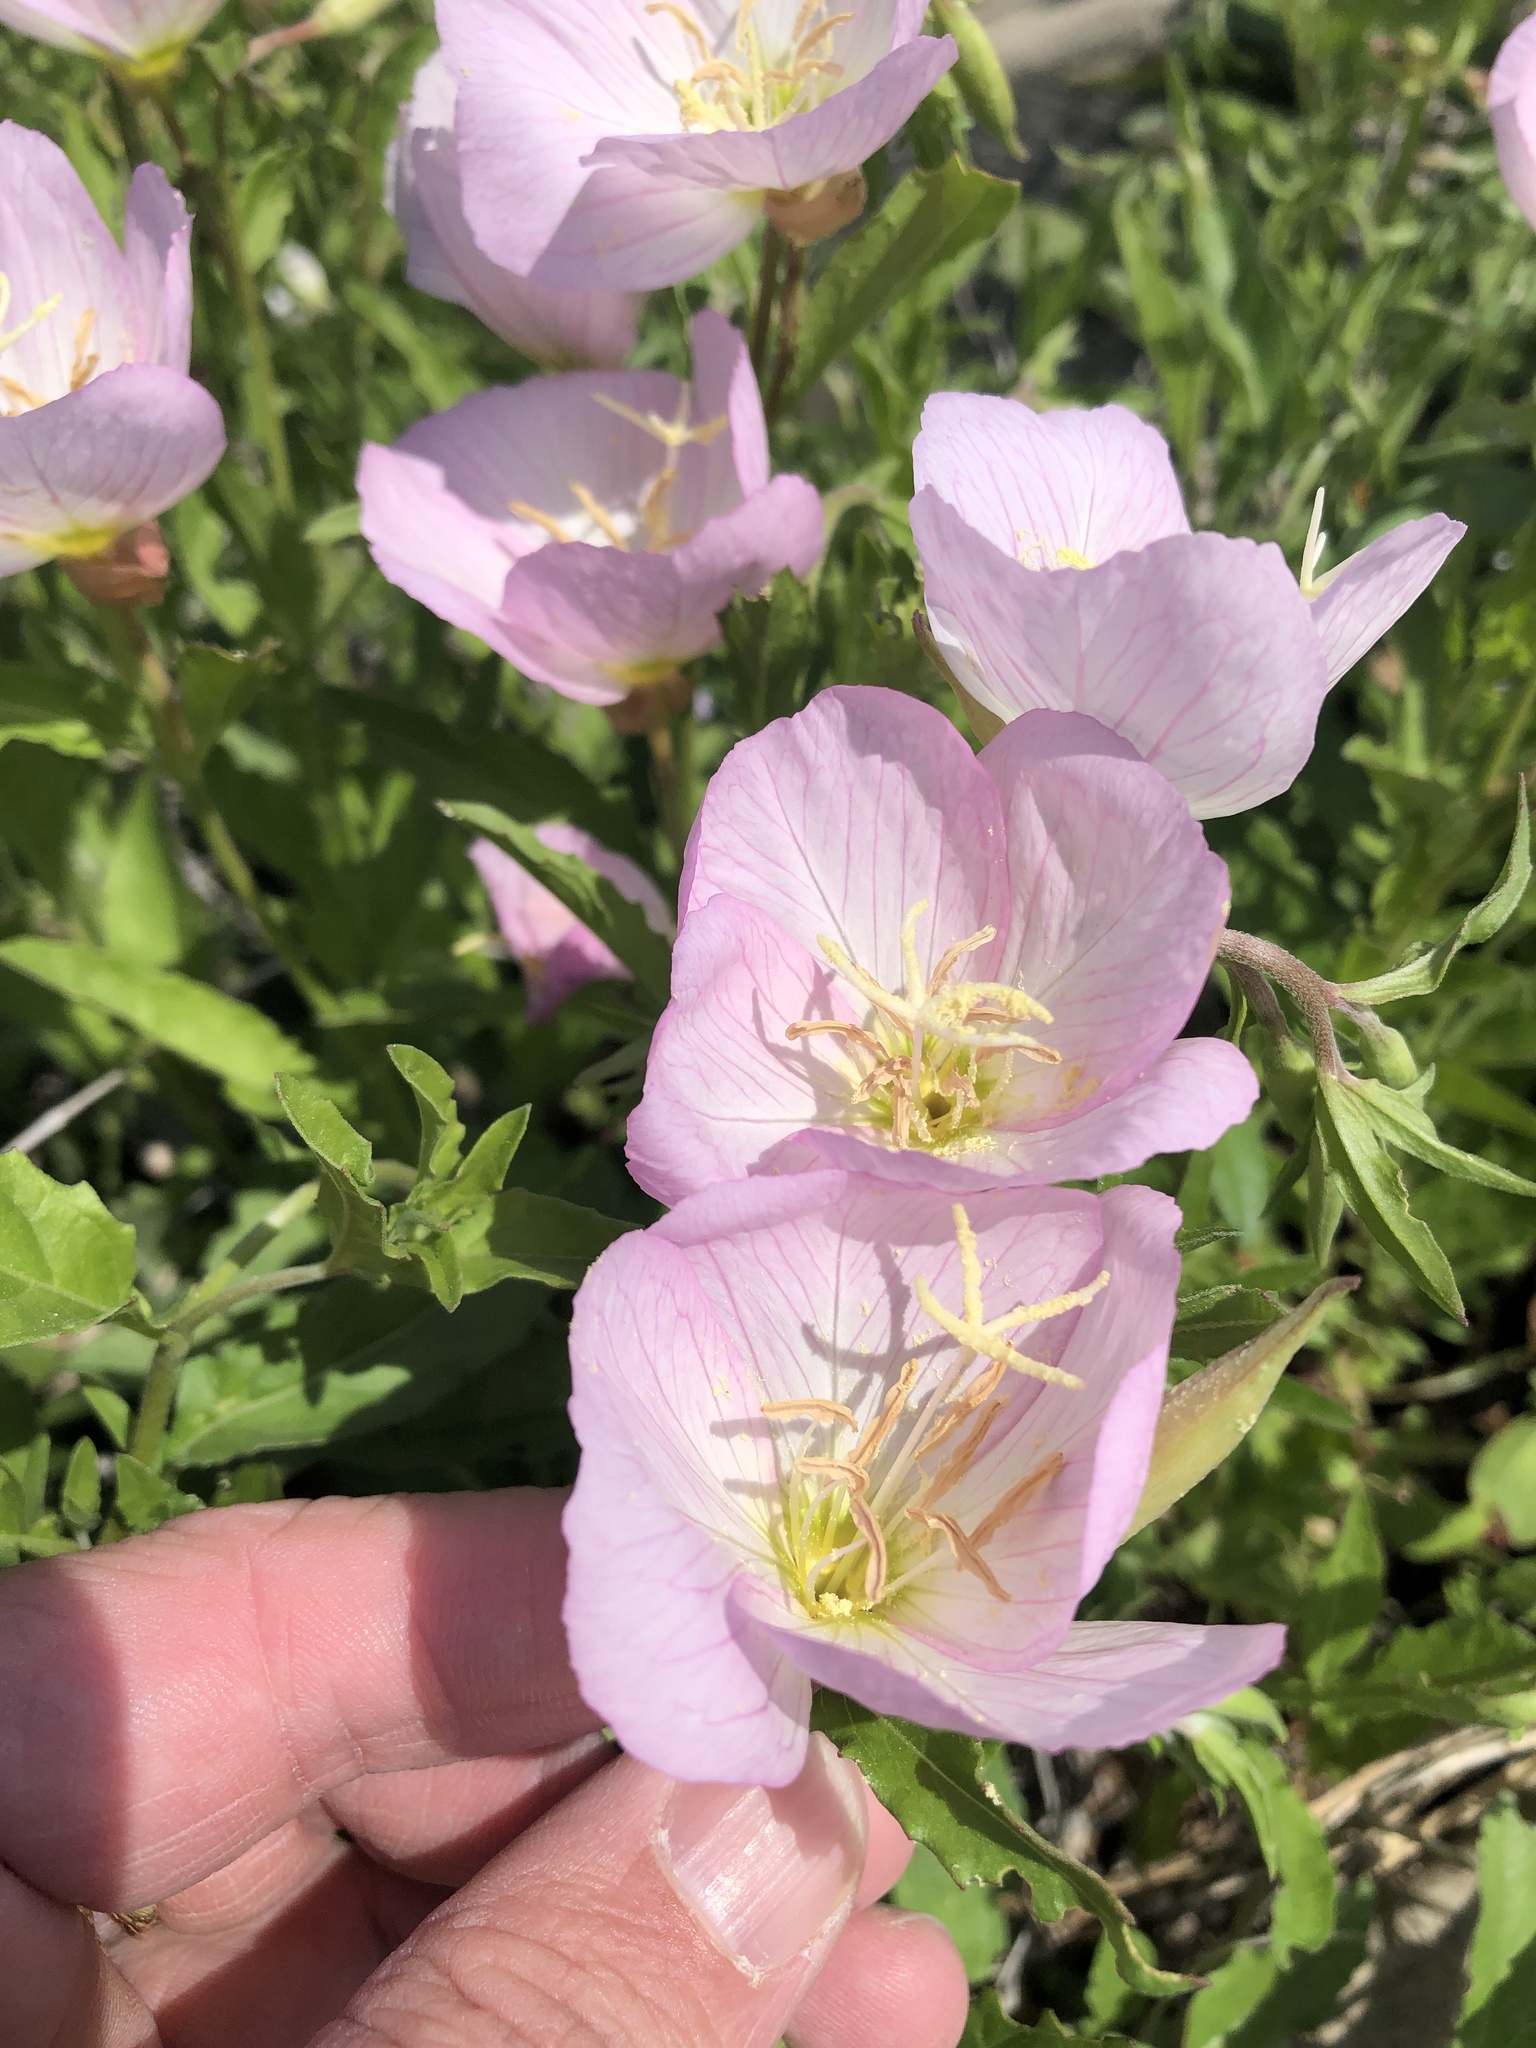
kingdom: Plantae
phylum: Tracheophyta
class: Magnoliopsida
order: Myrtales
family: Onagraceae
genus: Oenothera
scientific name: Oenothera speciosa
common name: White evening-primrose
